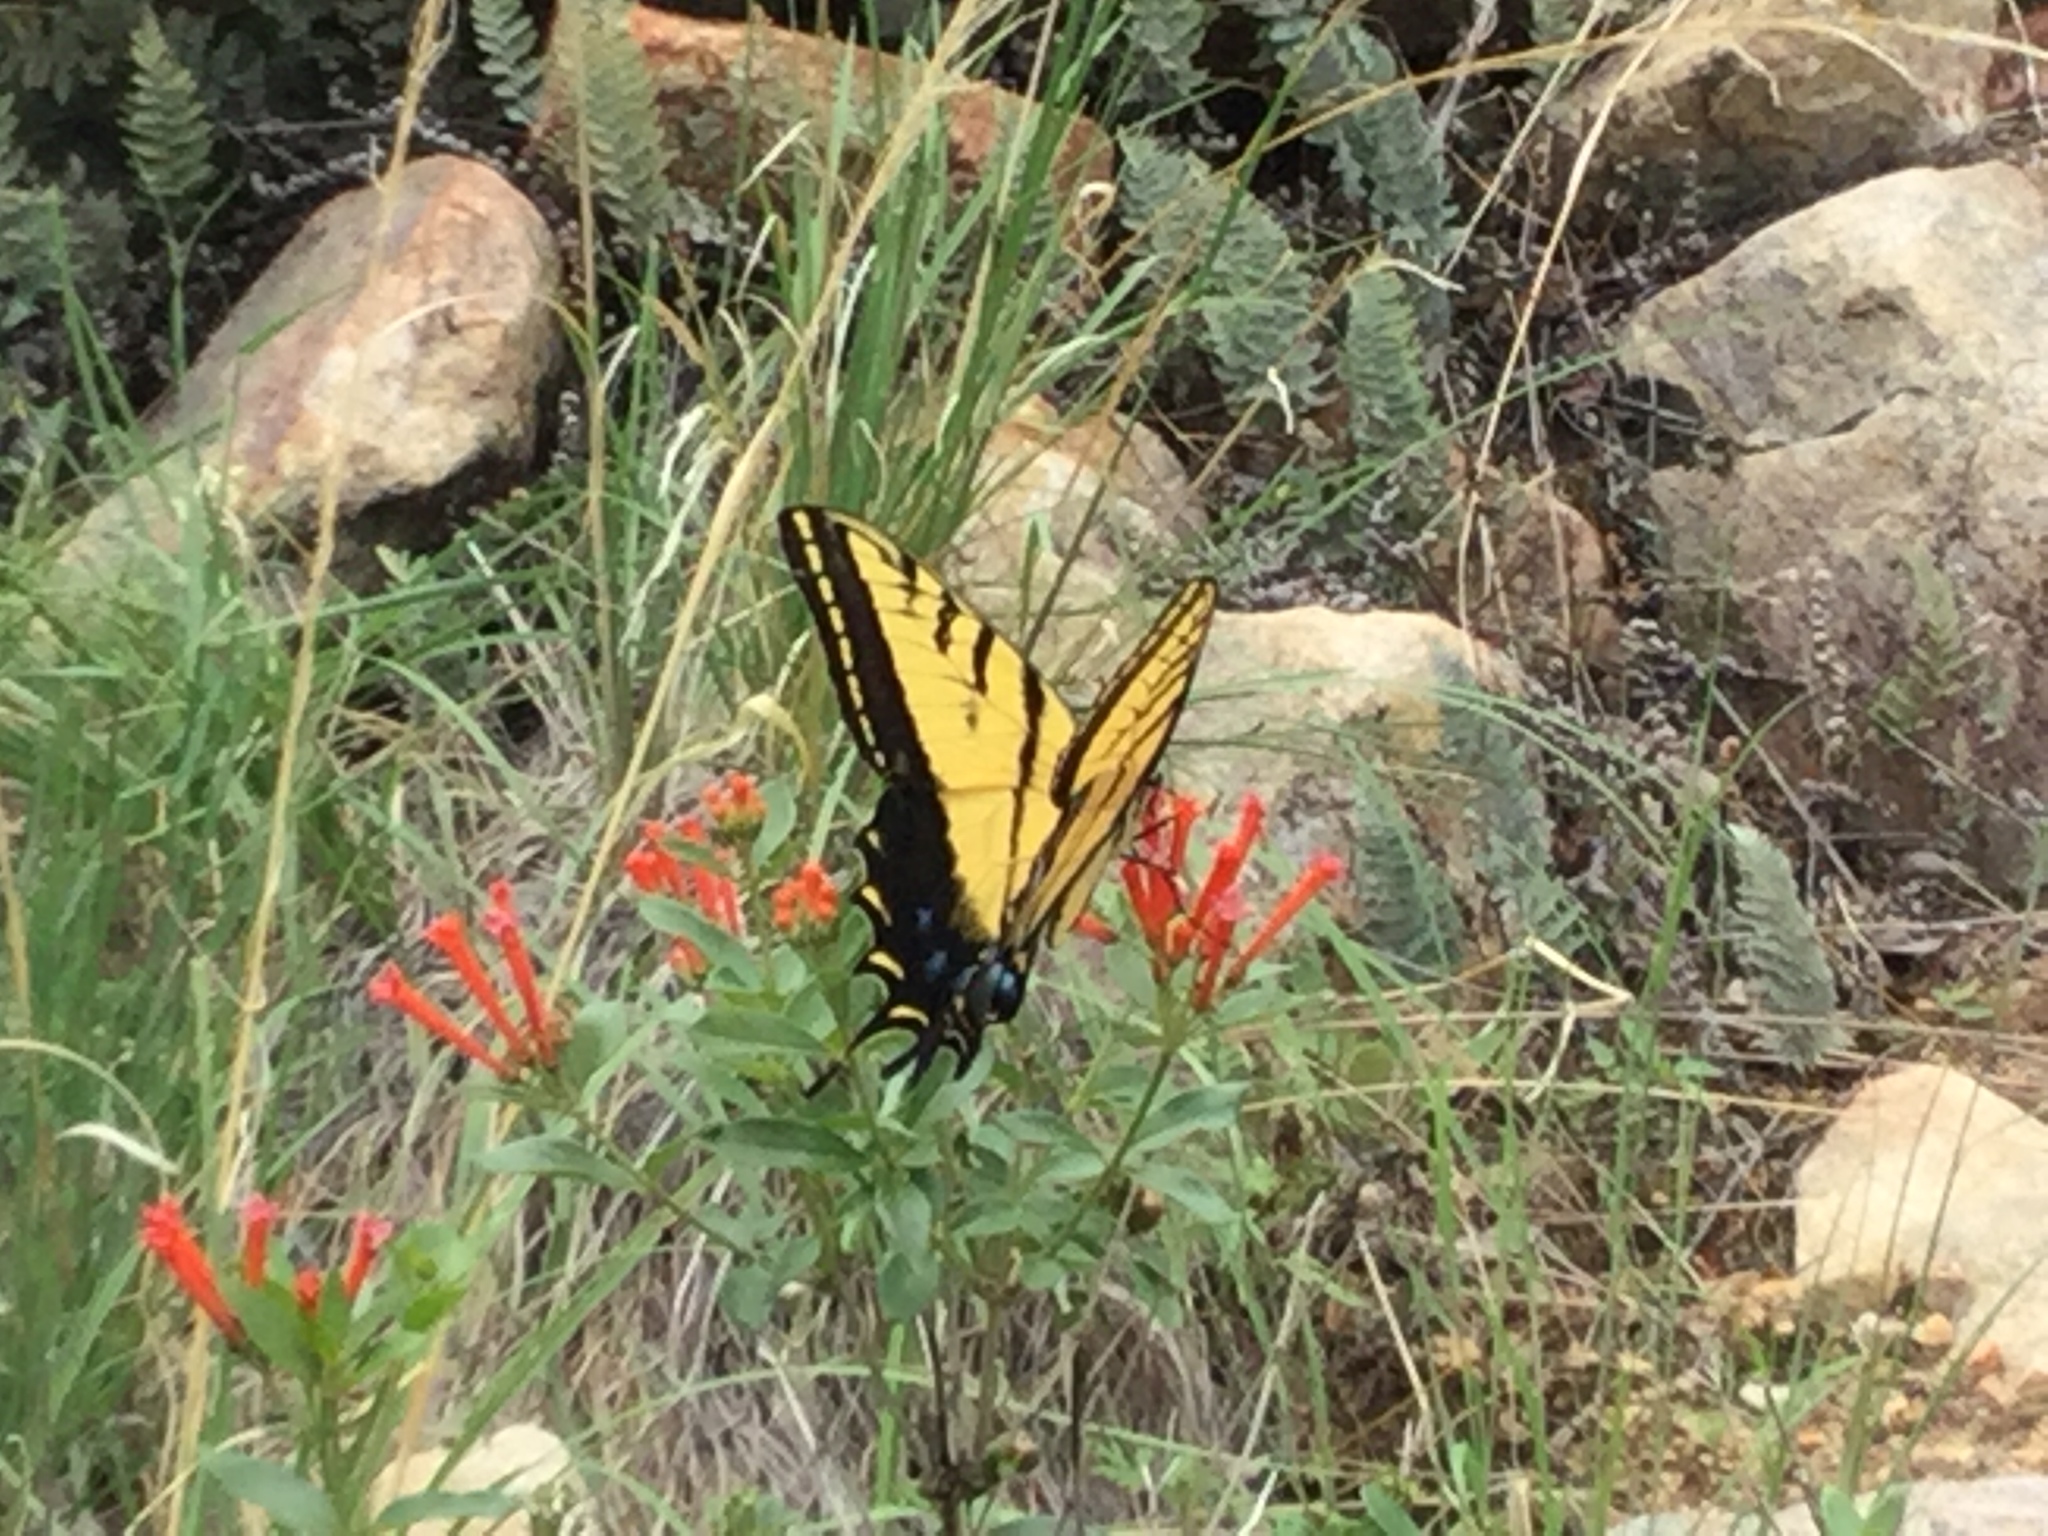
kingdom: Animalia
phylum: Arthropoda
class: Insecta
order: Lepidoptera
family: Papilionidae
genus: Papilio
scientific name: Papilio multicaudata
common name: Two-tailed tiger swallowtail
